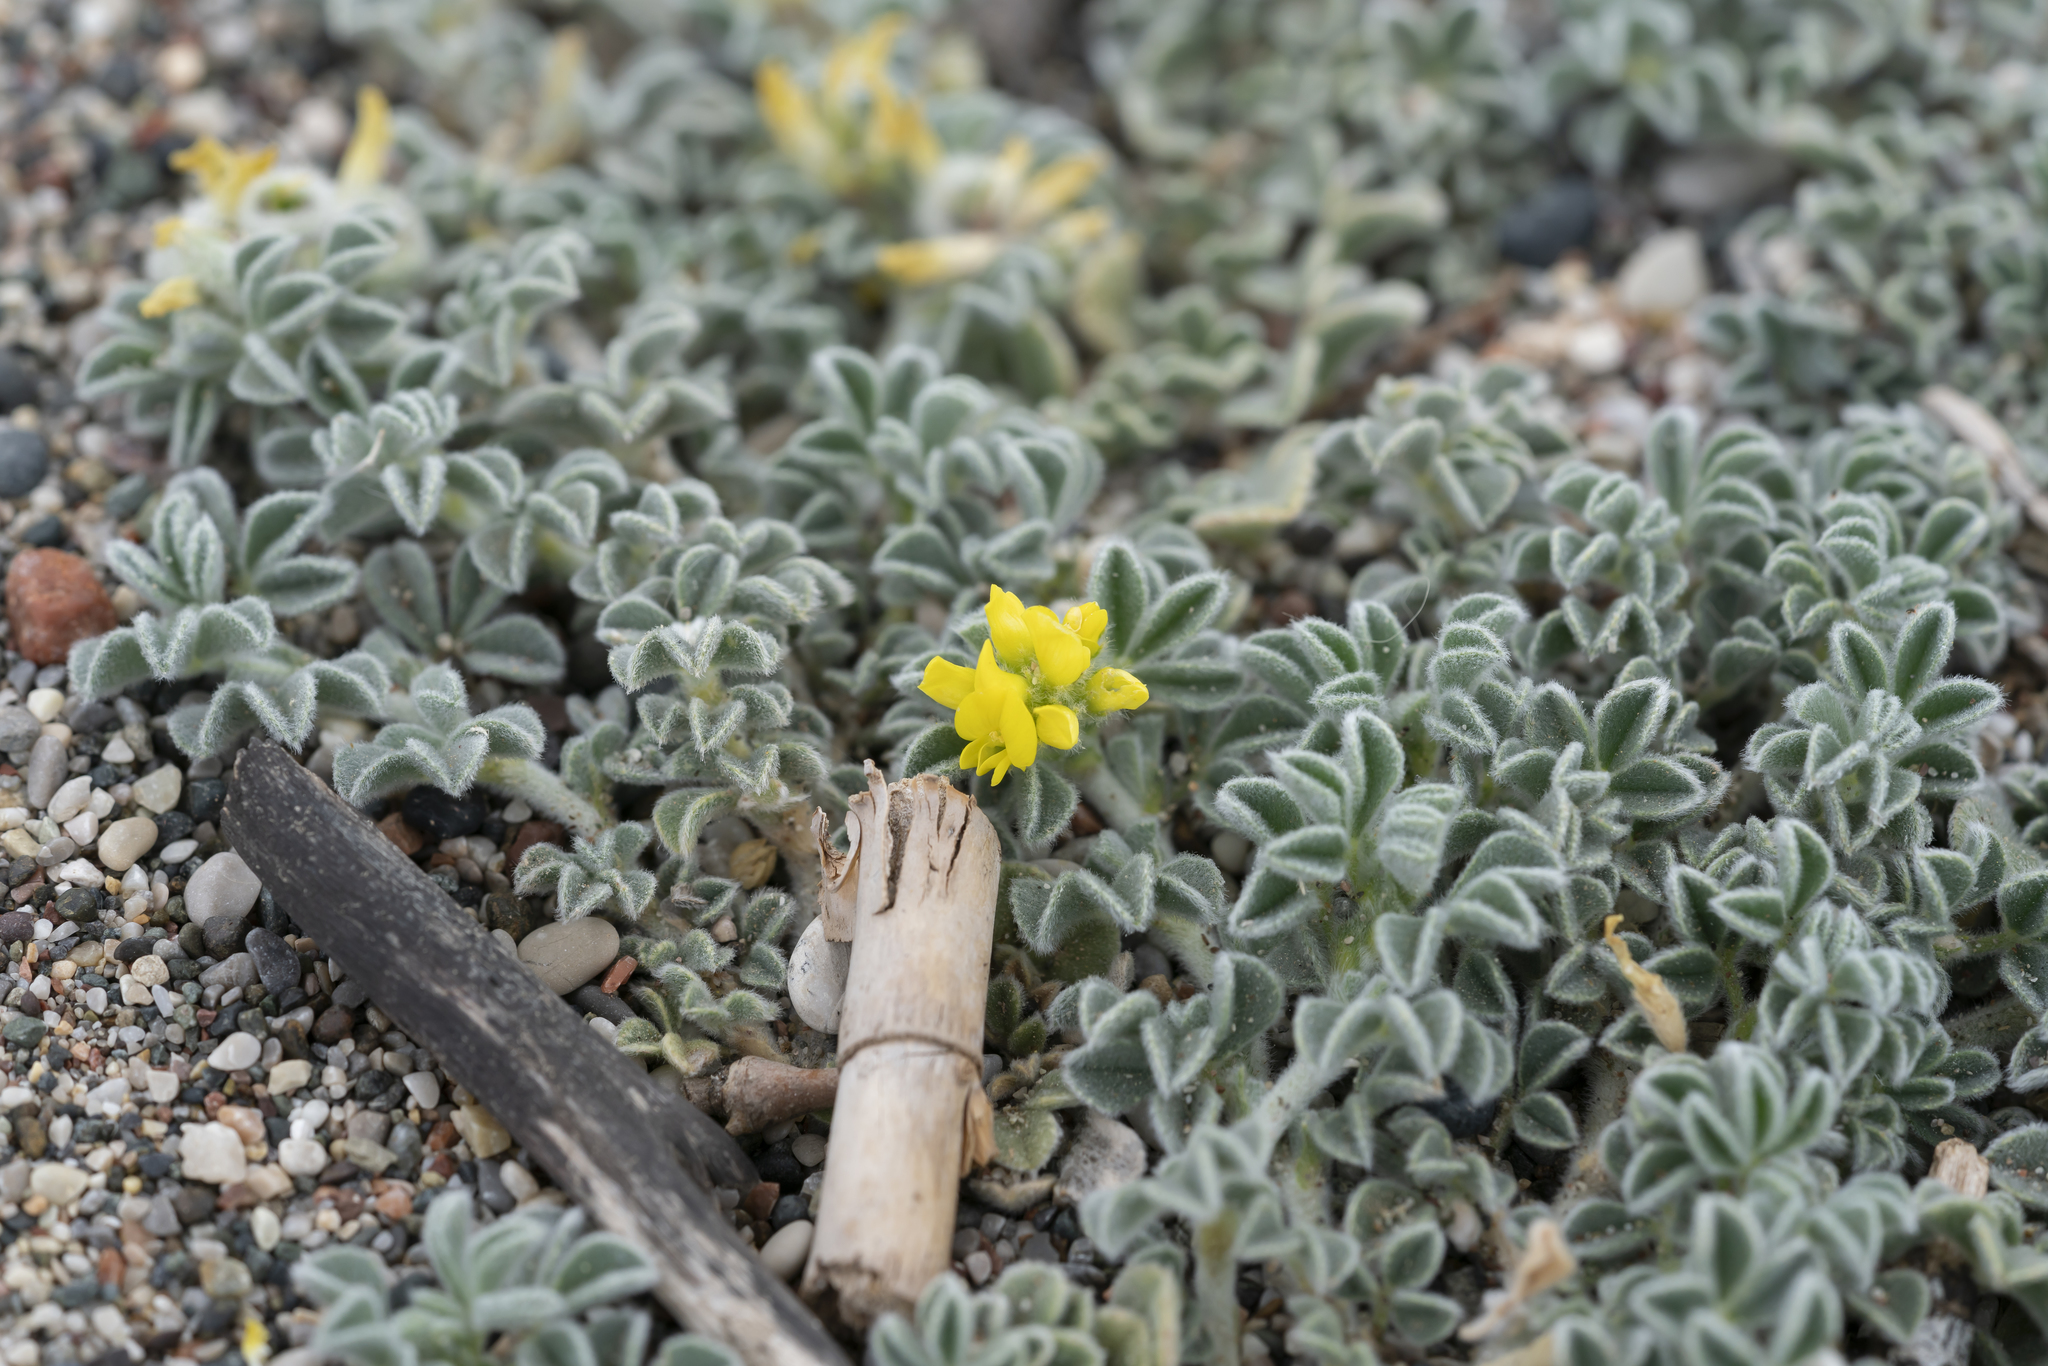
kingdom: Plantae
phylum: Tracheophyta
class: Magnoliopsida
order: Fabales
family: Fabaceae
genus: Medicago
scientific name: Medicago marina
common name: Sea medick
